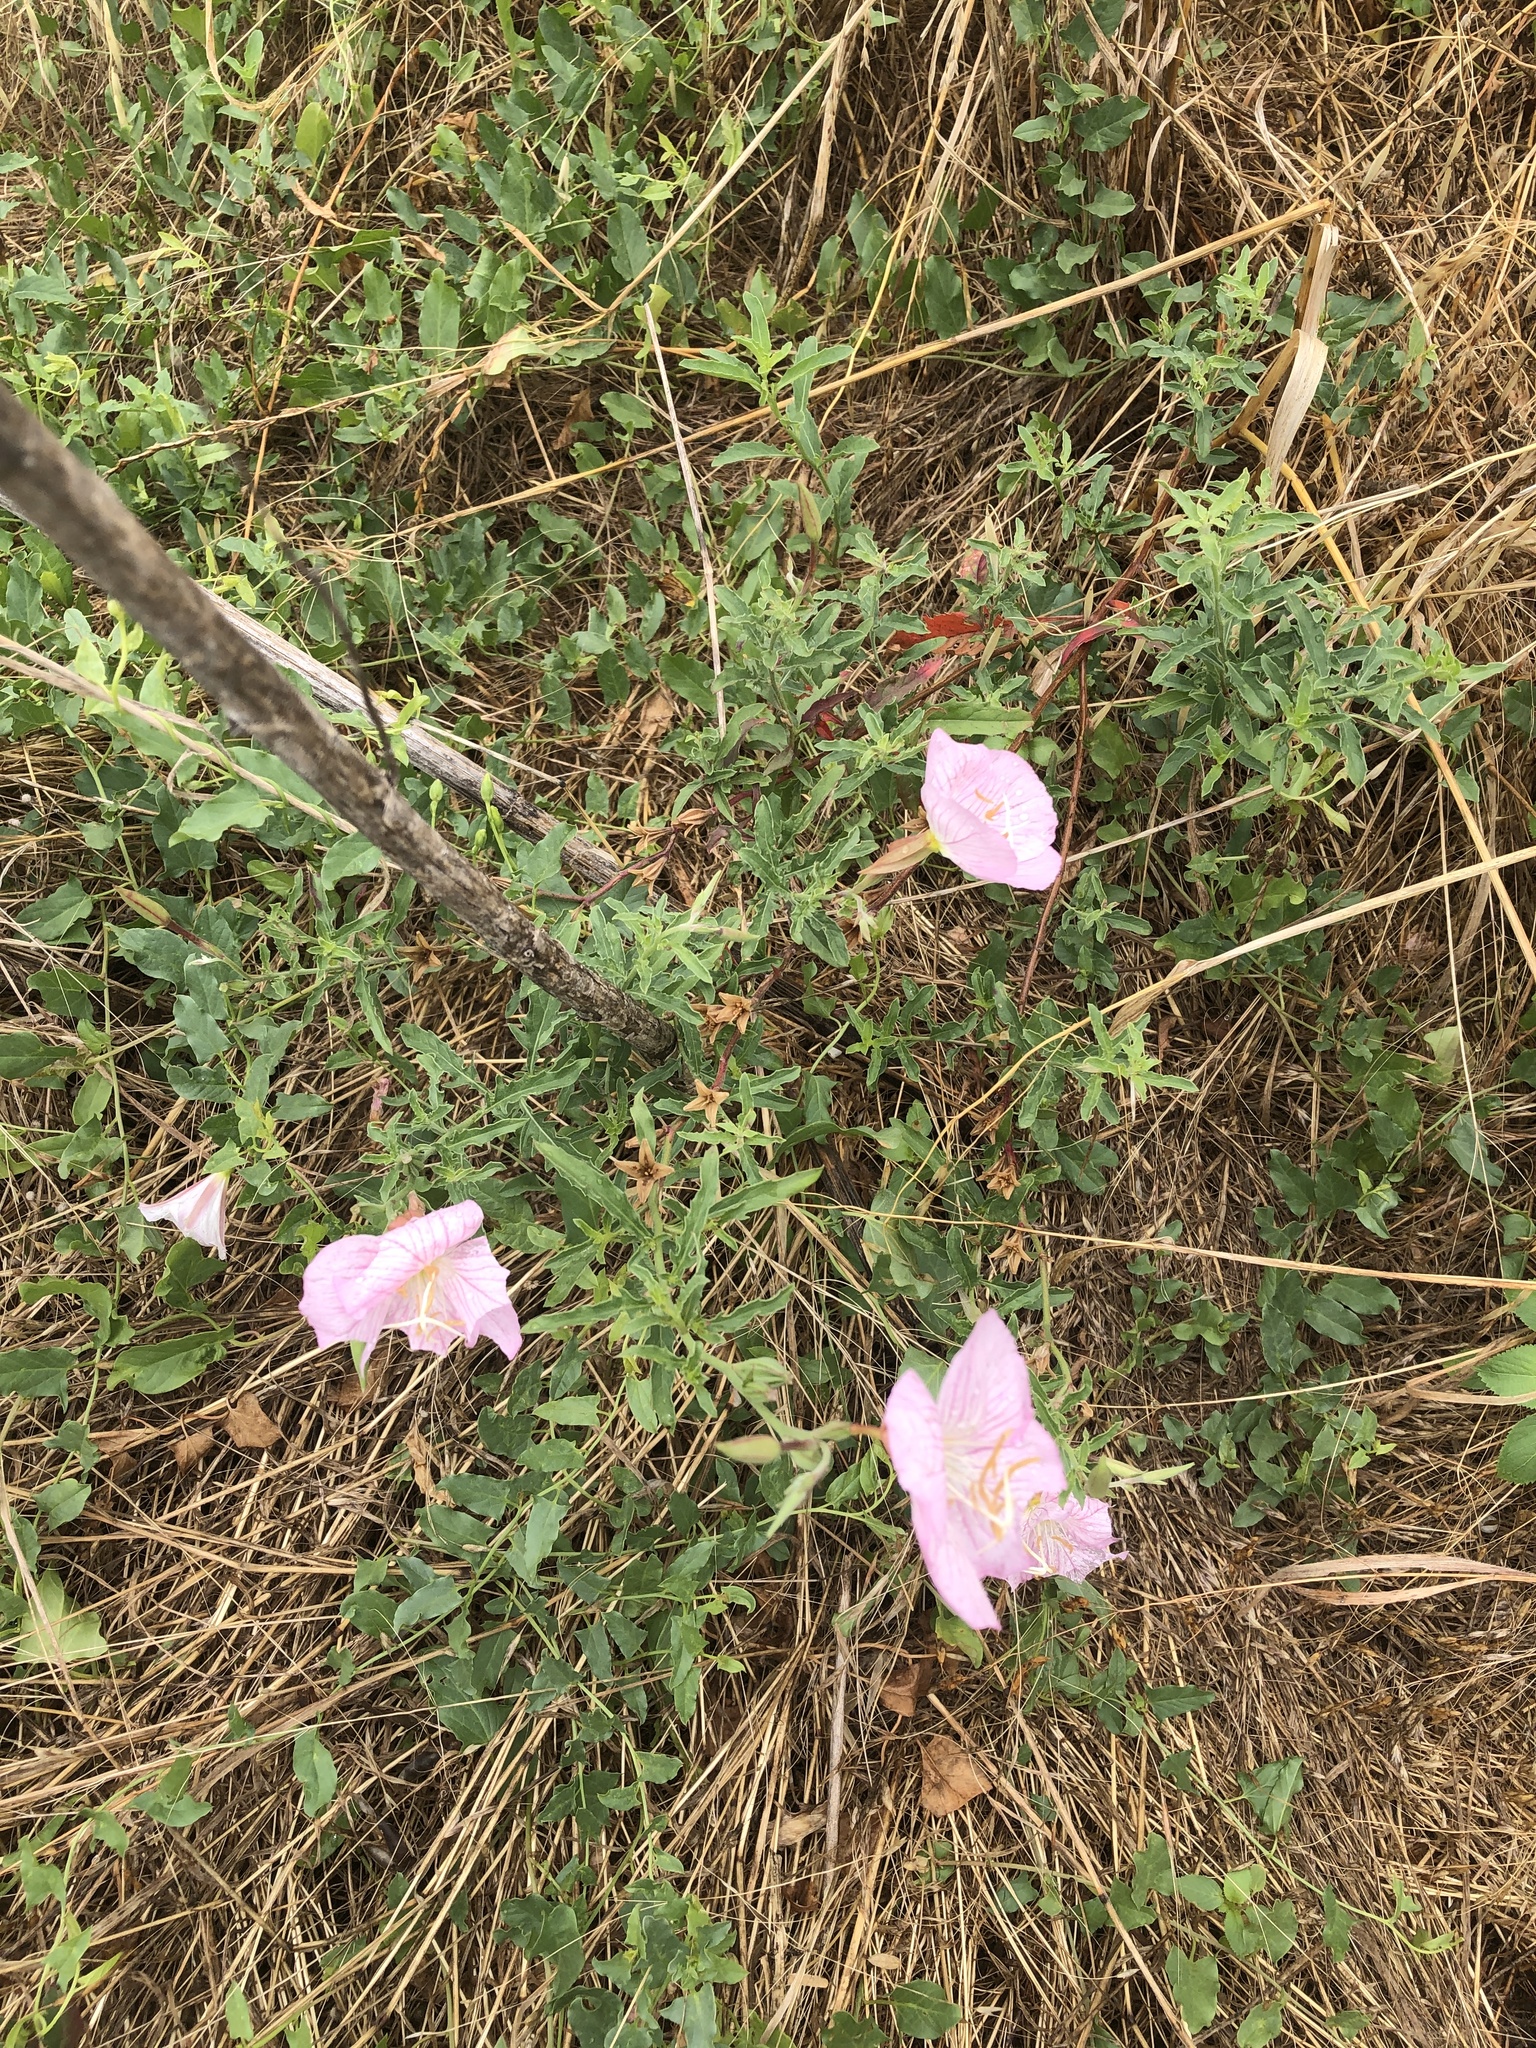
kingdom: Plantae
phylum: Tracheophyta
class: Magnoliopsida
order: Myrtales
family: Onagraceae
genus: Oenothera
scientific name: Oenothera speciosa
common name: White evening-primrose
